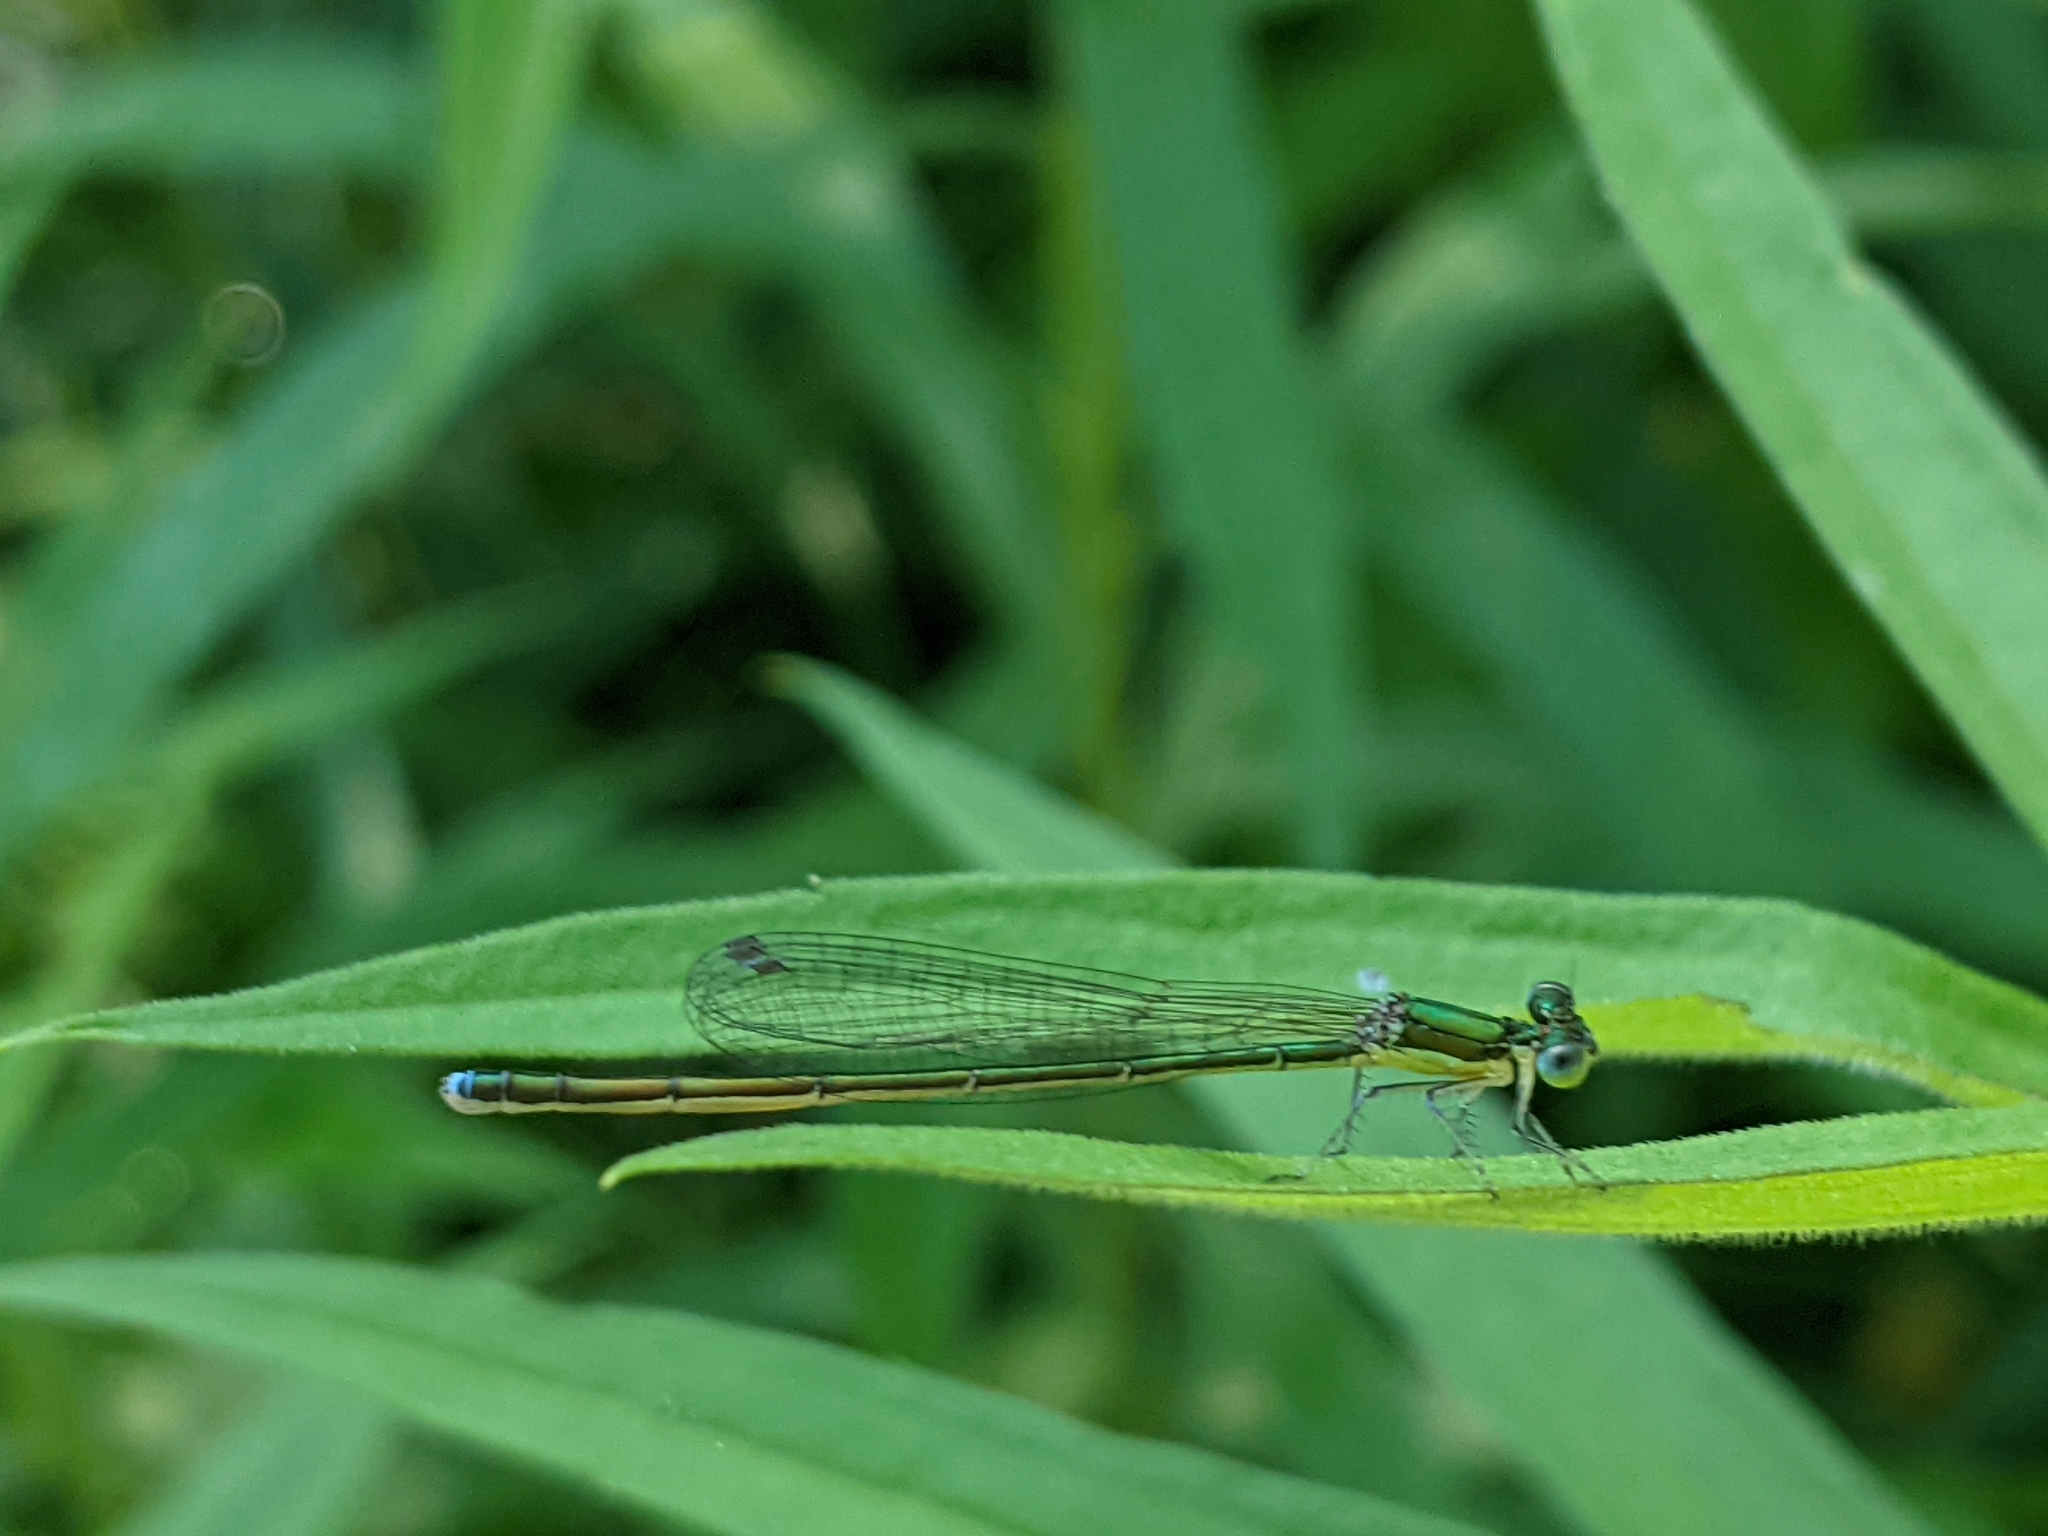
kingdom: Animalia
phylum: Arthropoda
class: Insecta
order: Odonata
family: Coenagrionidae
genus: Nehalennia
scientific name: Nehalennia irene
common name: Sedge sprite
